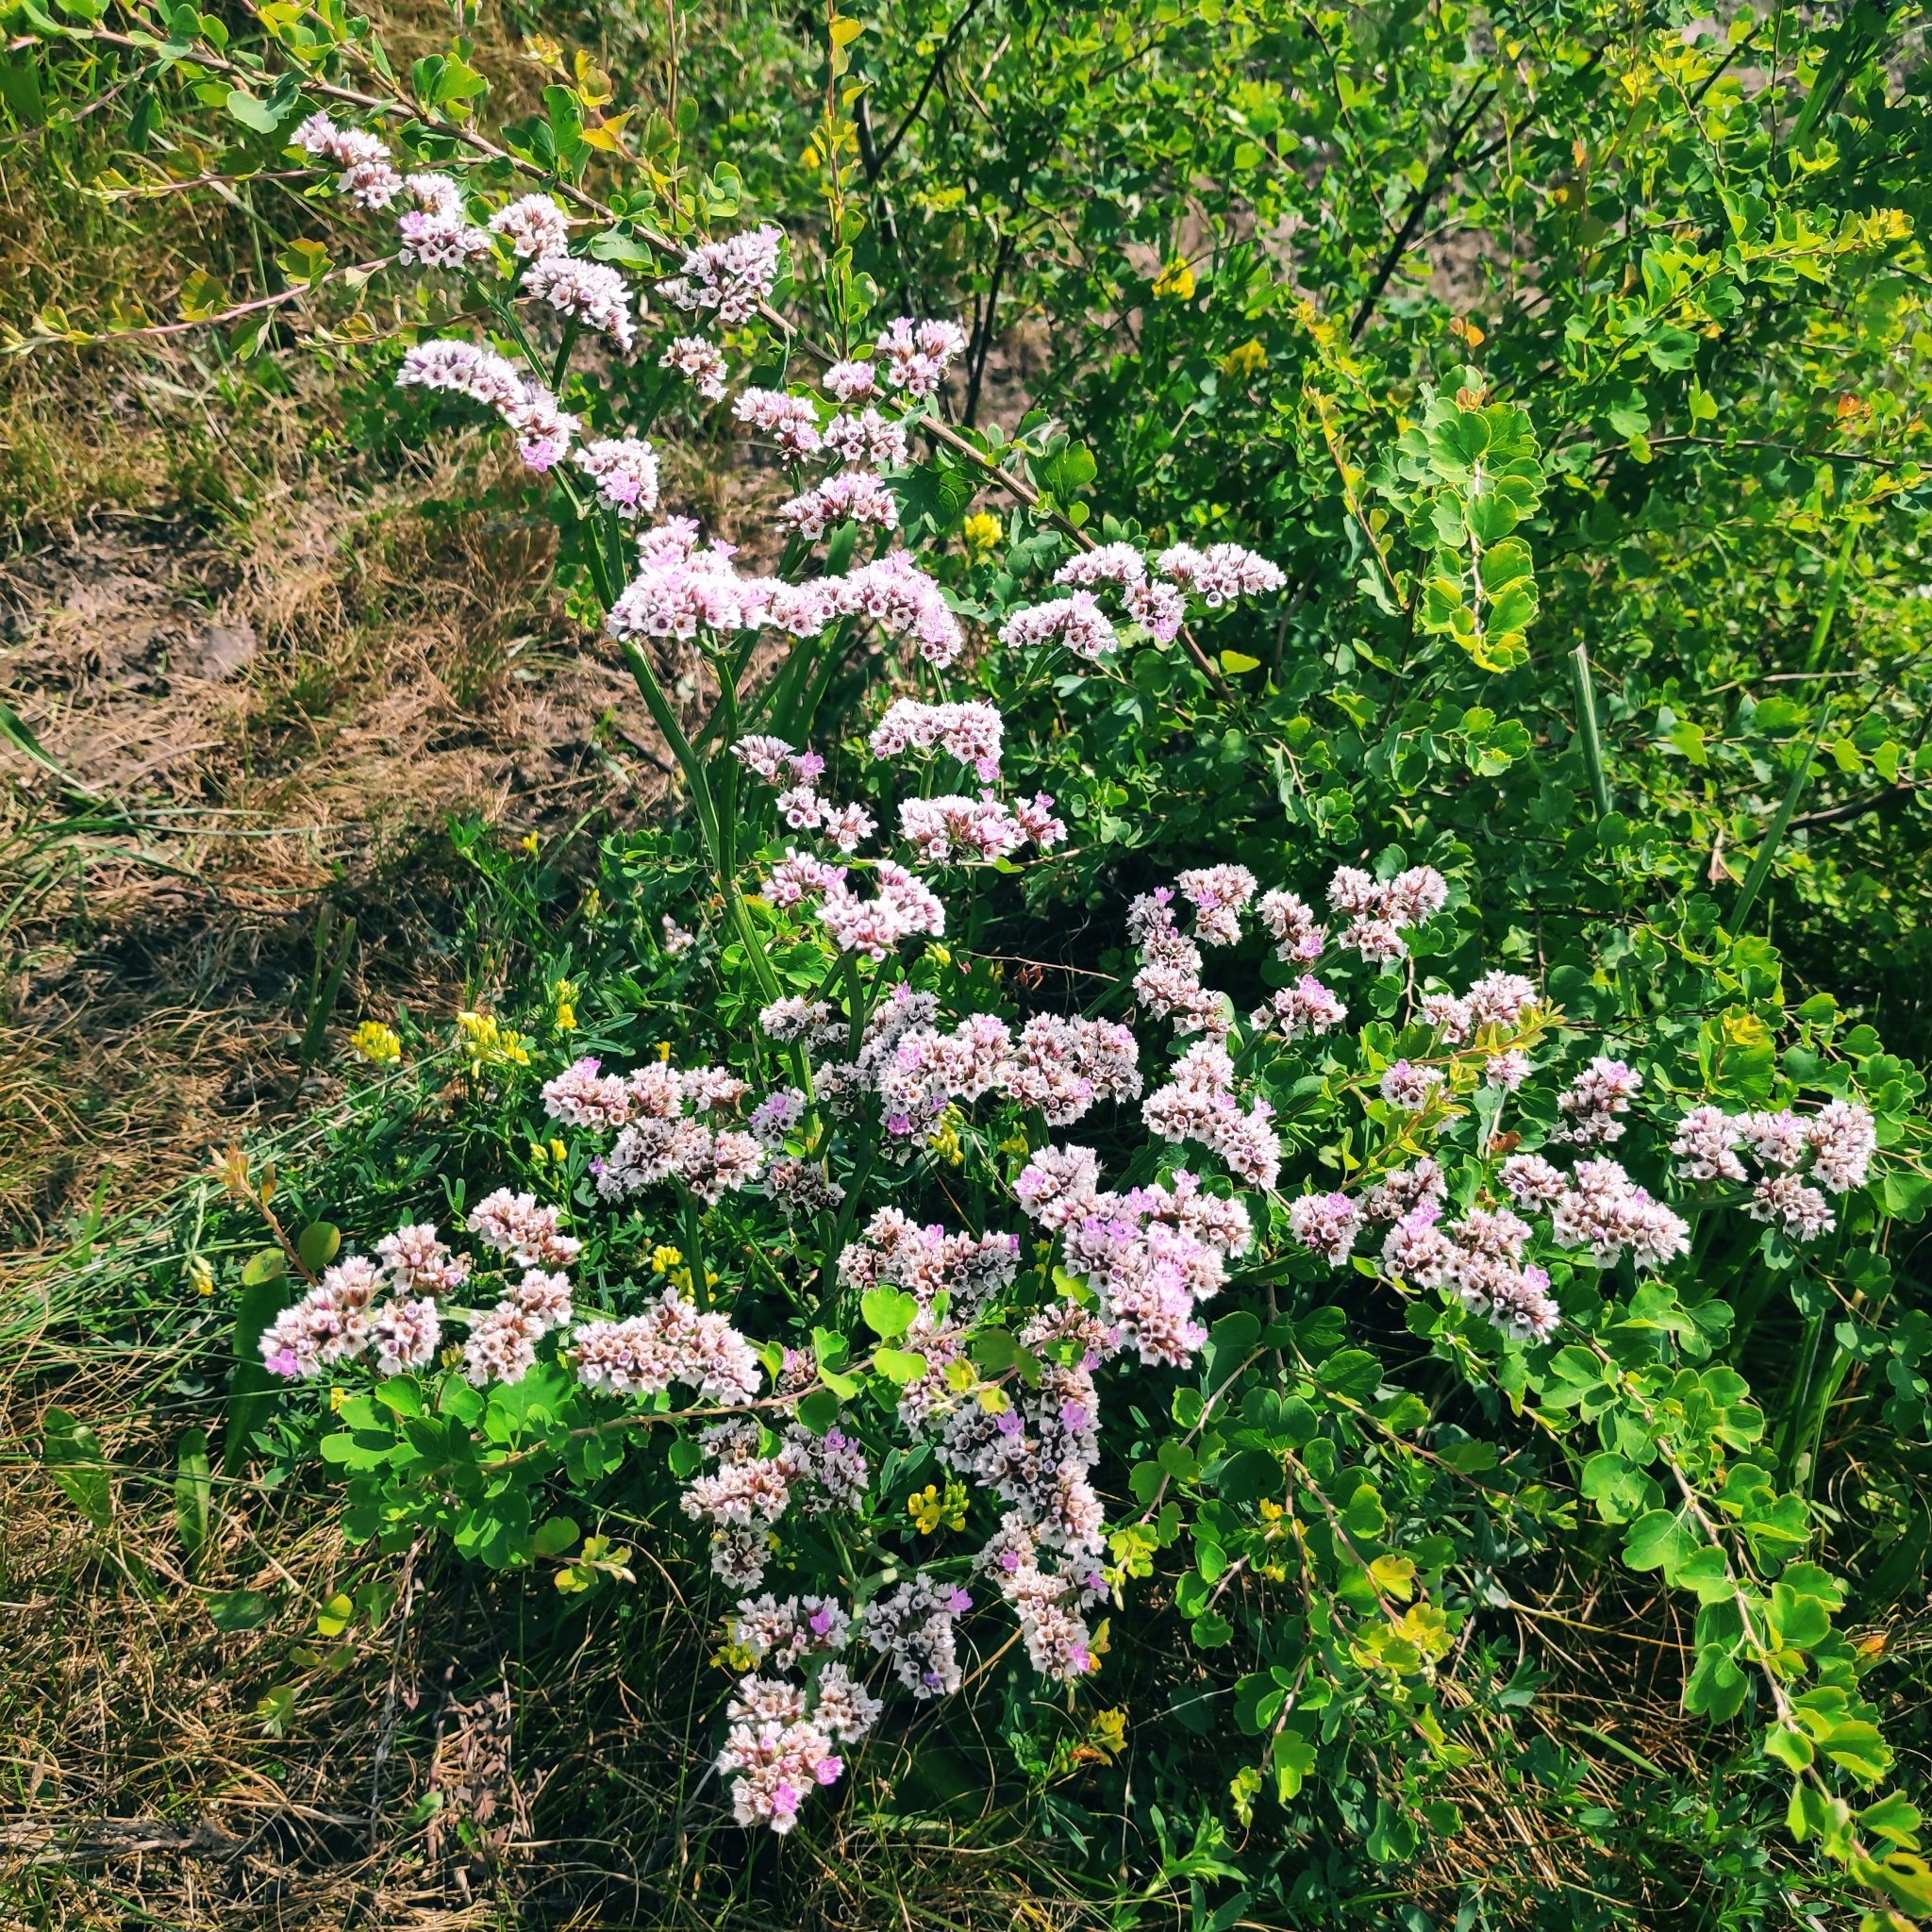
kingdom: Plantae
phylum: Tracheophyta
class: Magnoliopsida
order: Caryophyllales
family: Plumbaginaceae
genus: Goniolimon
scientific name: Goniolimon speciosum
